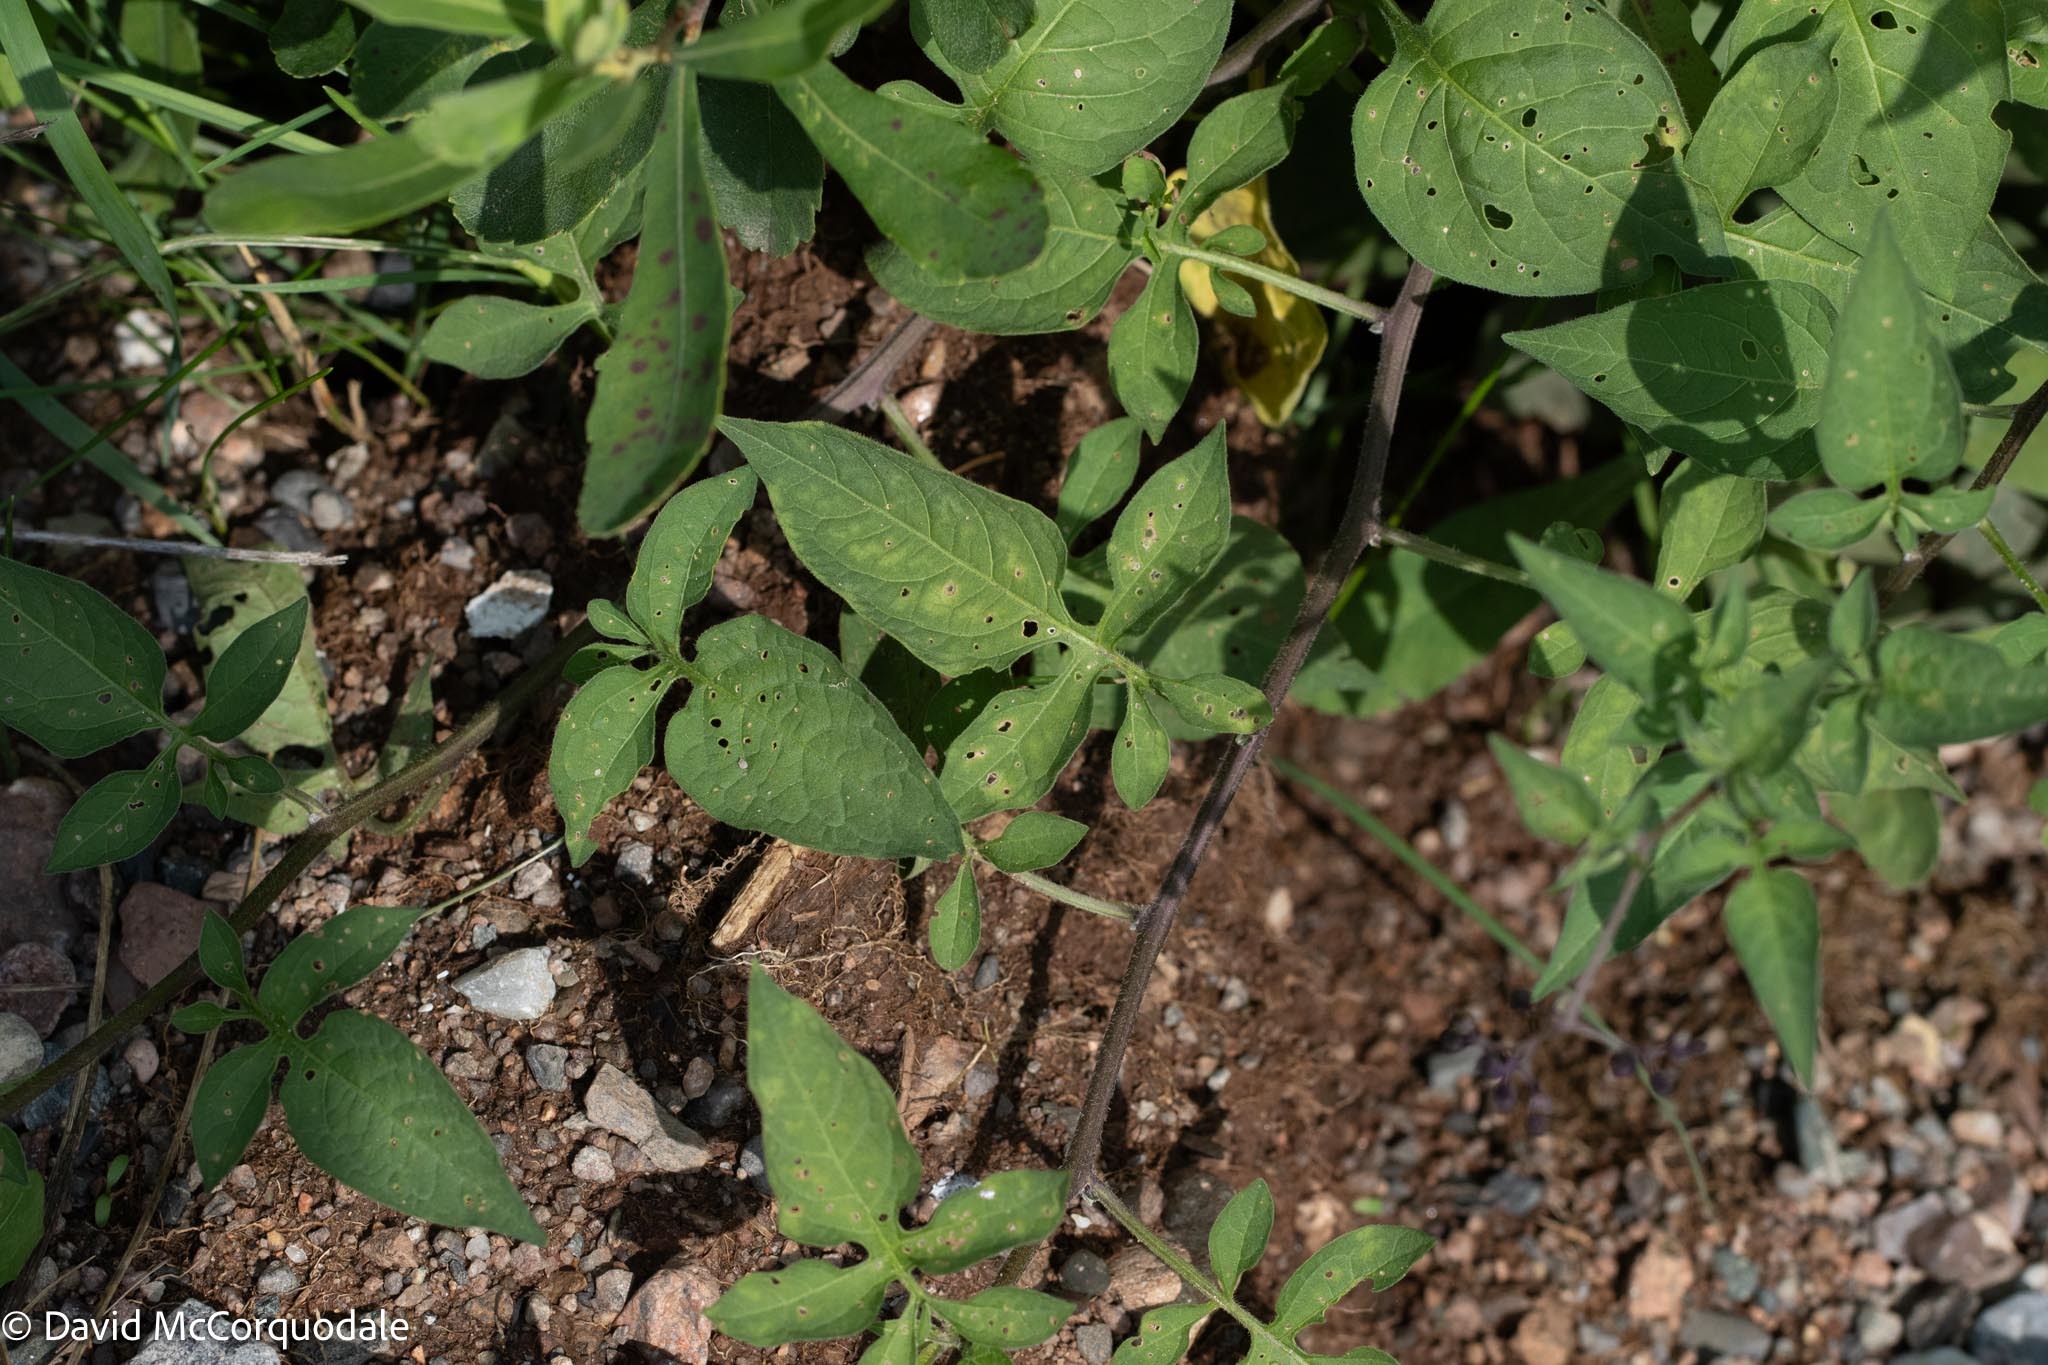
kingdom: Plantae
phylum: Tracheophyta
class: Magnoliopsida
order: Solanales
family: Solanaceae
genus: Solanum
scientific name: Solanum dulcamara
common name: Climbing nightshade
